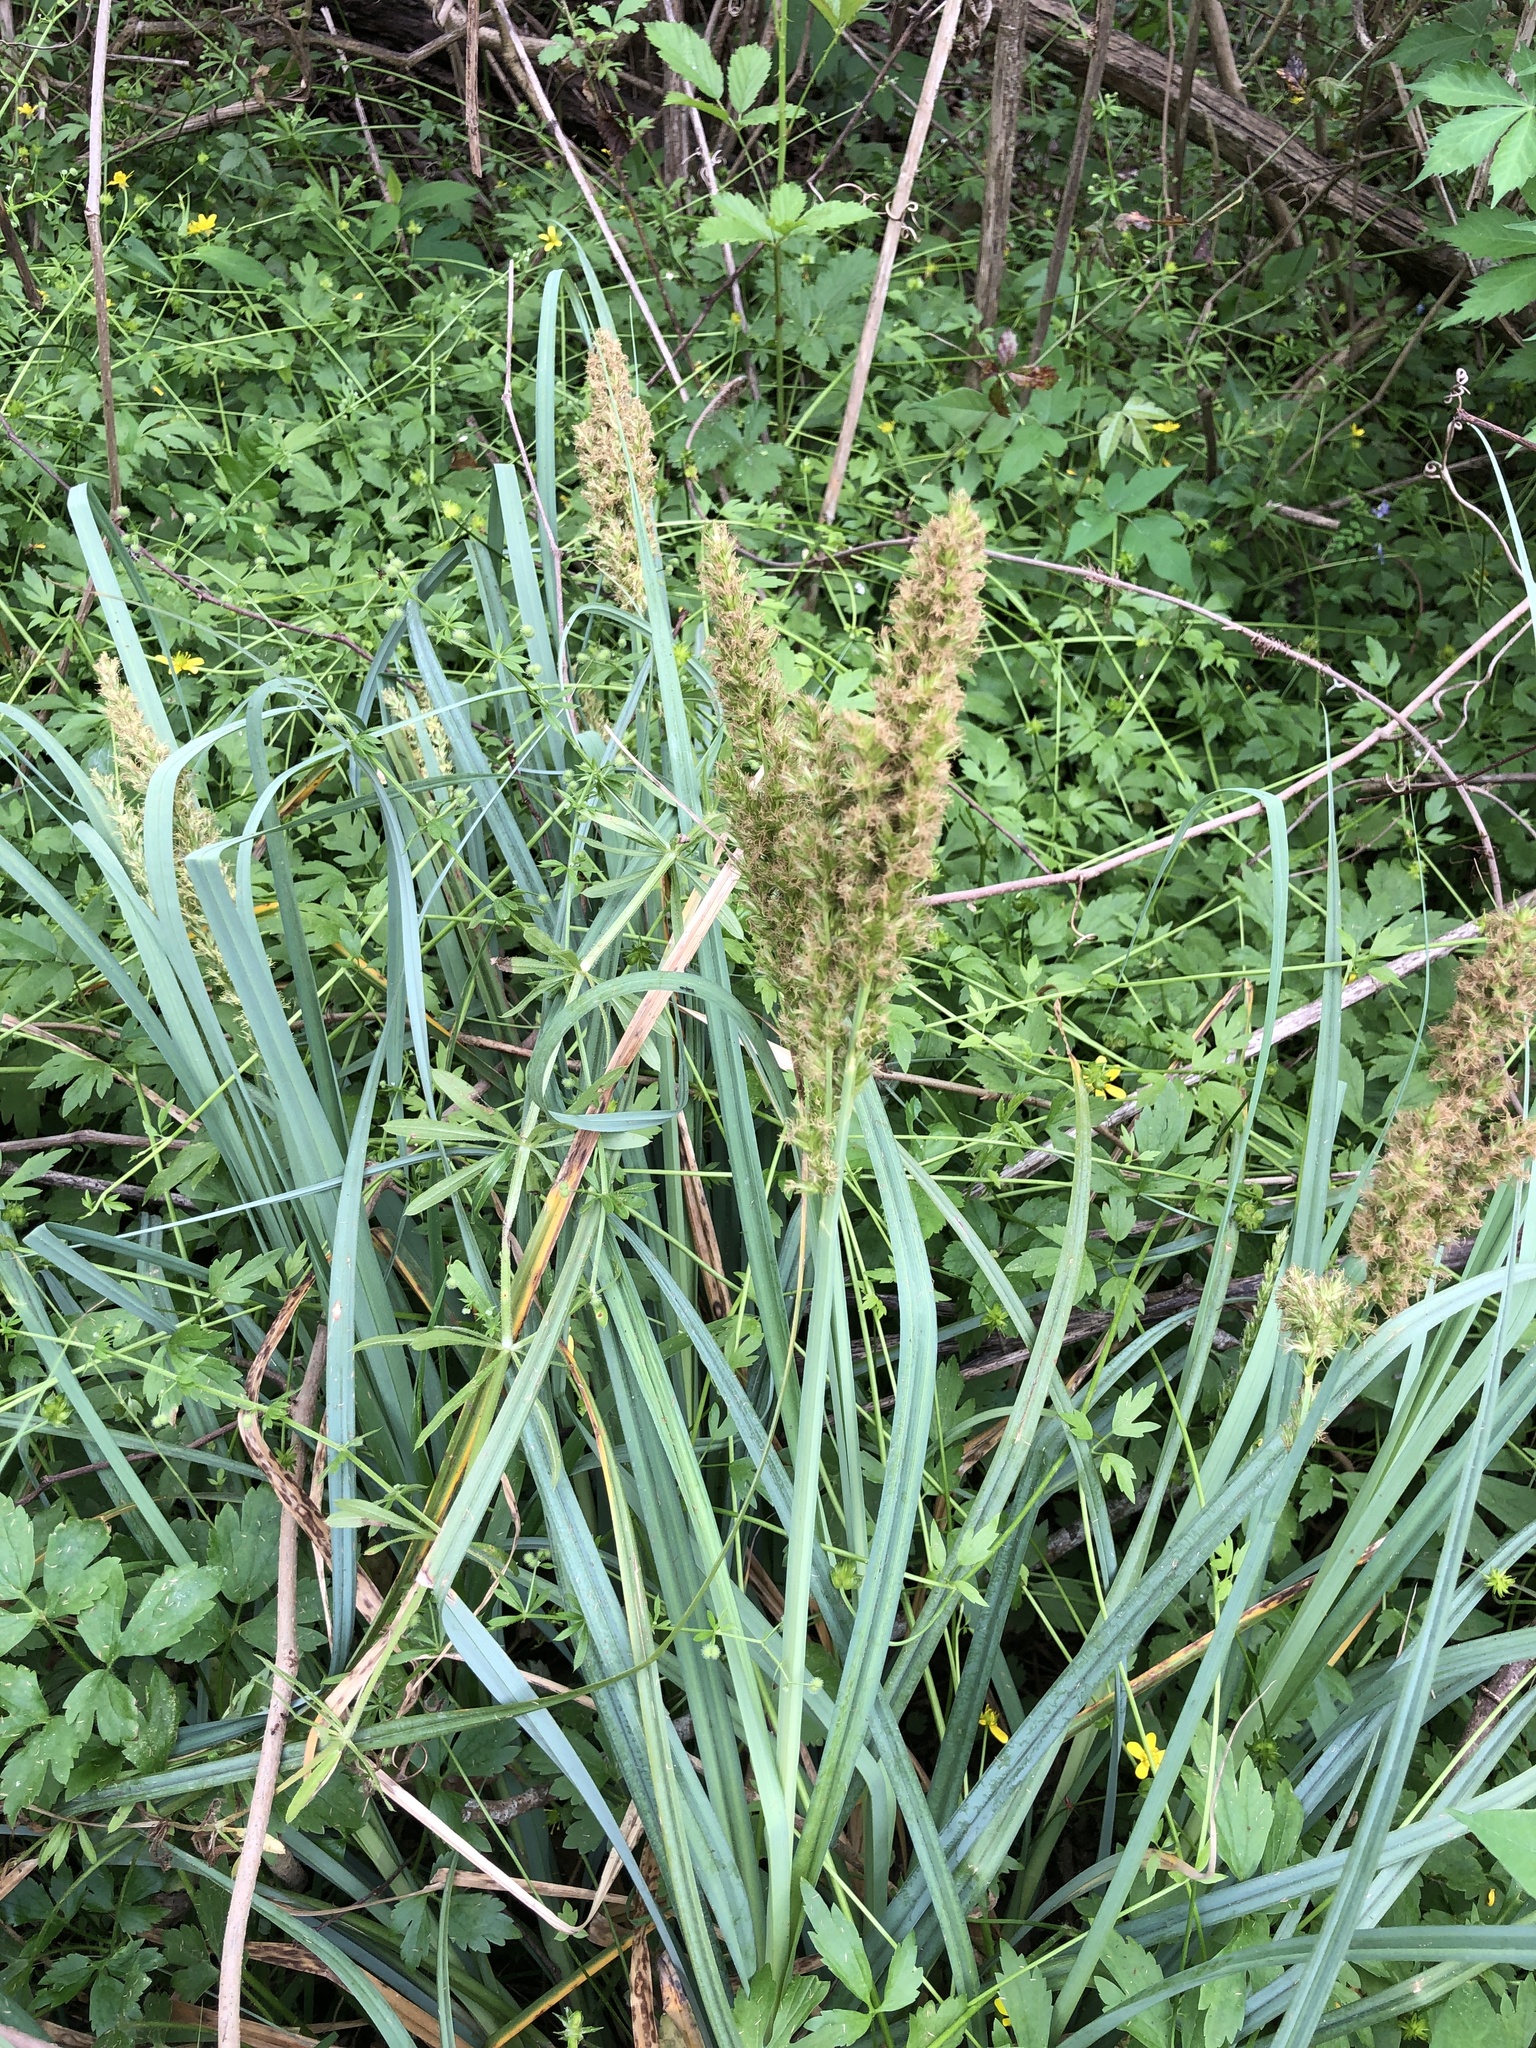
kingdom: Plantae
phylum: Tracheophyta
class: Liliopsida
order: Poales
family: Cyperaceae
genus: Carex
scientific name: Carex crus-corvi
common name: Crow-spur sedge
